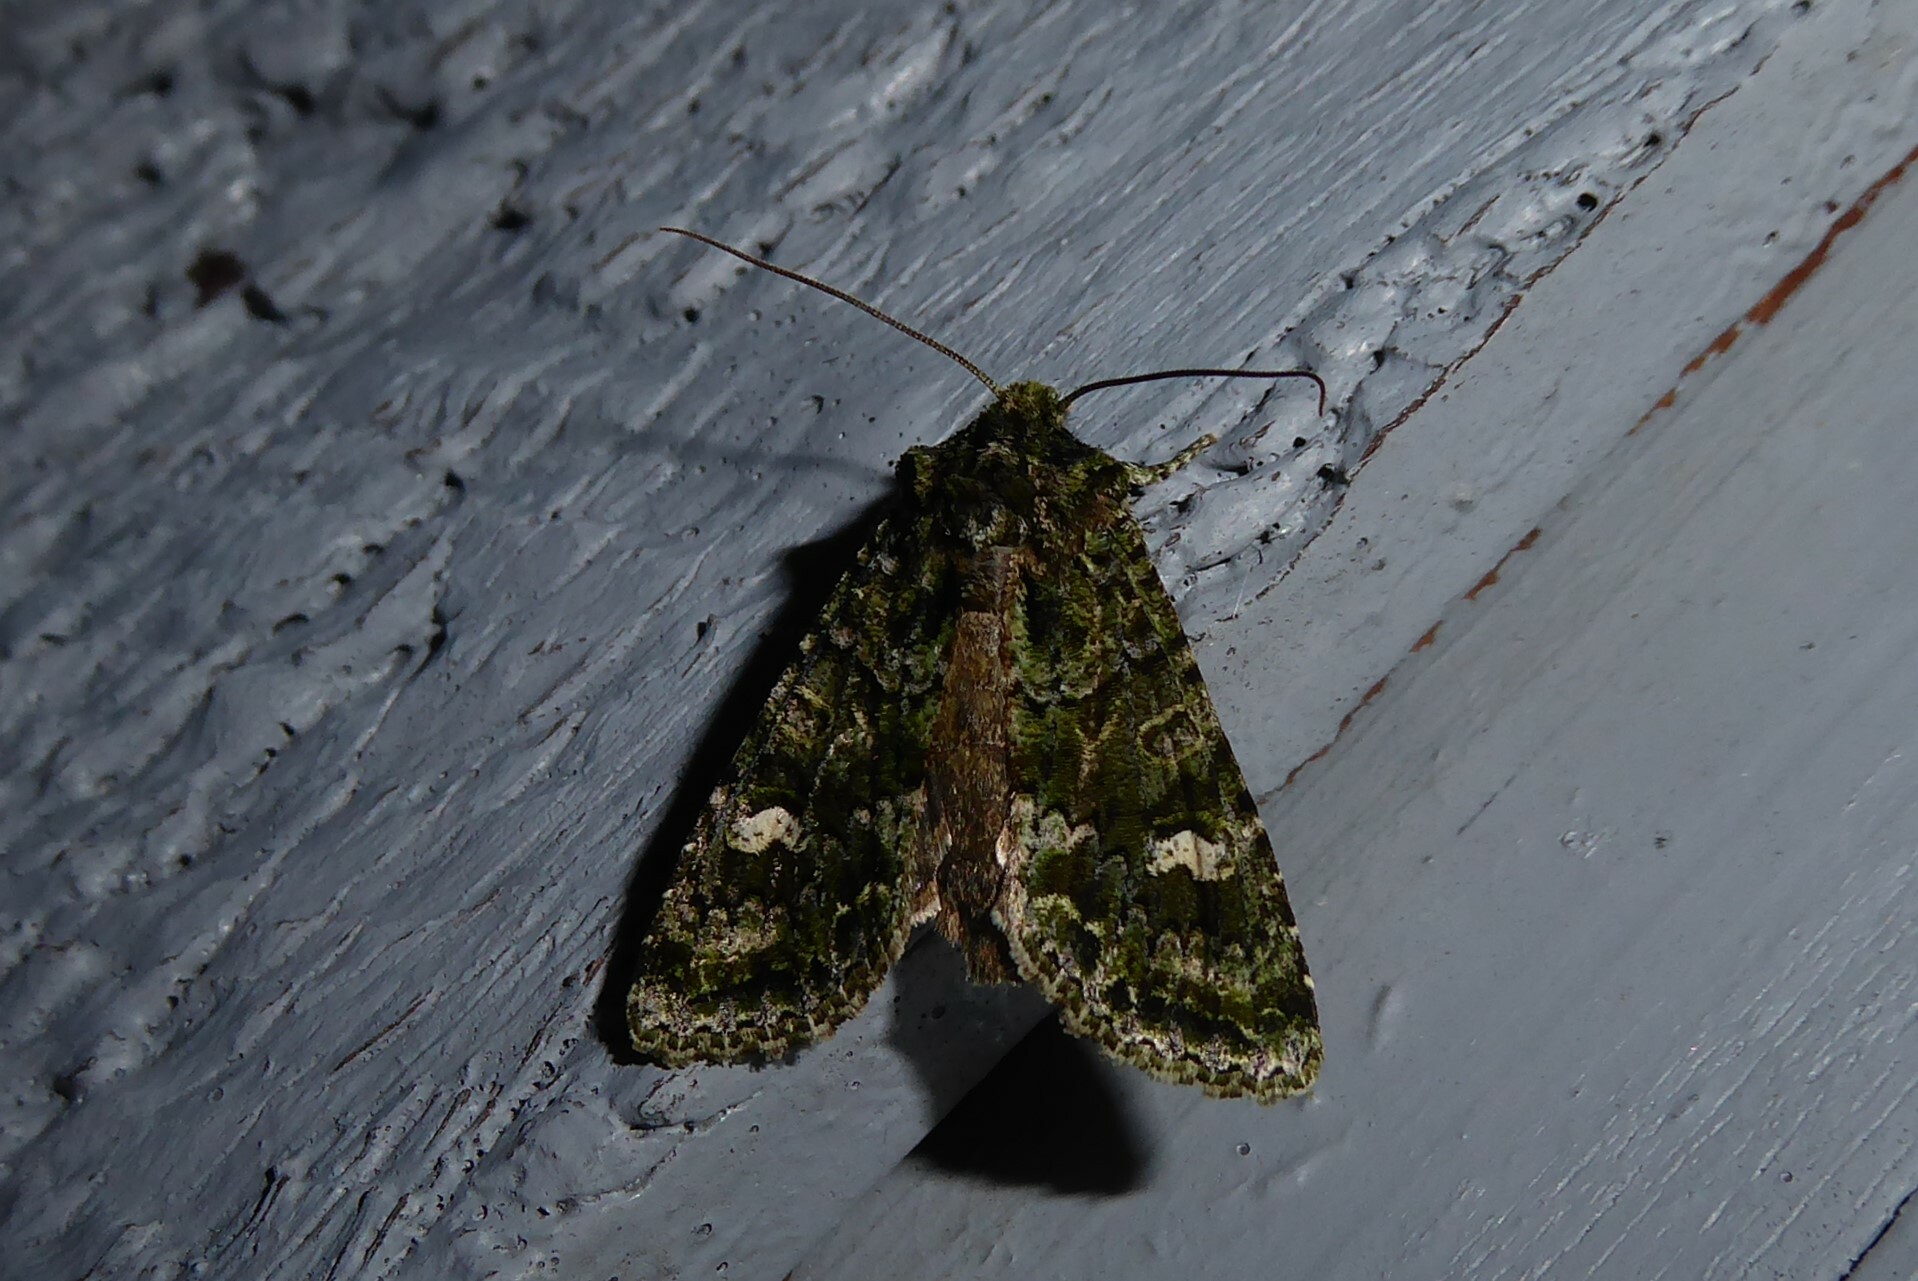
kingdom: Animalia
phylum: Arthropoda
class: Insecta
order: Lepidoptera
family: Noctuidae
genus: Ichneutica
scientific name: Ichneutica
